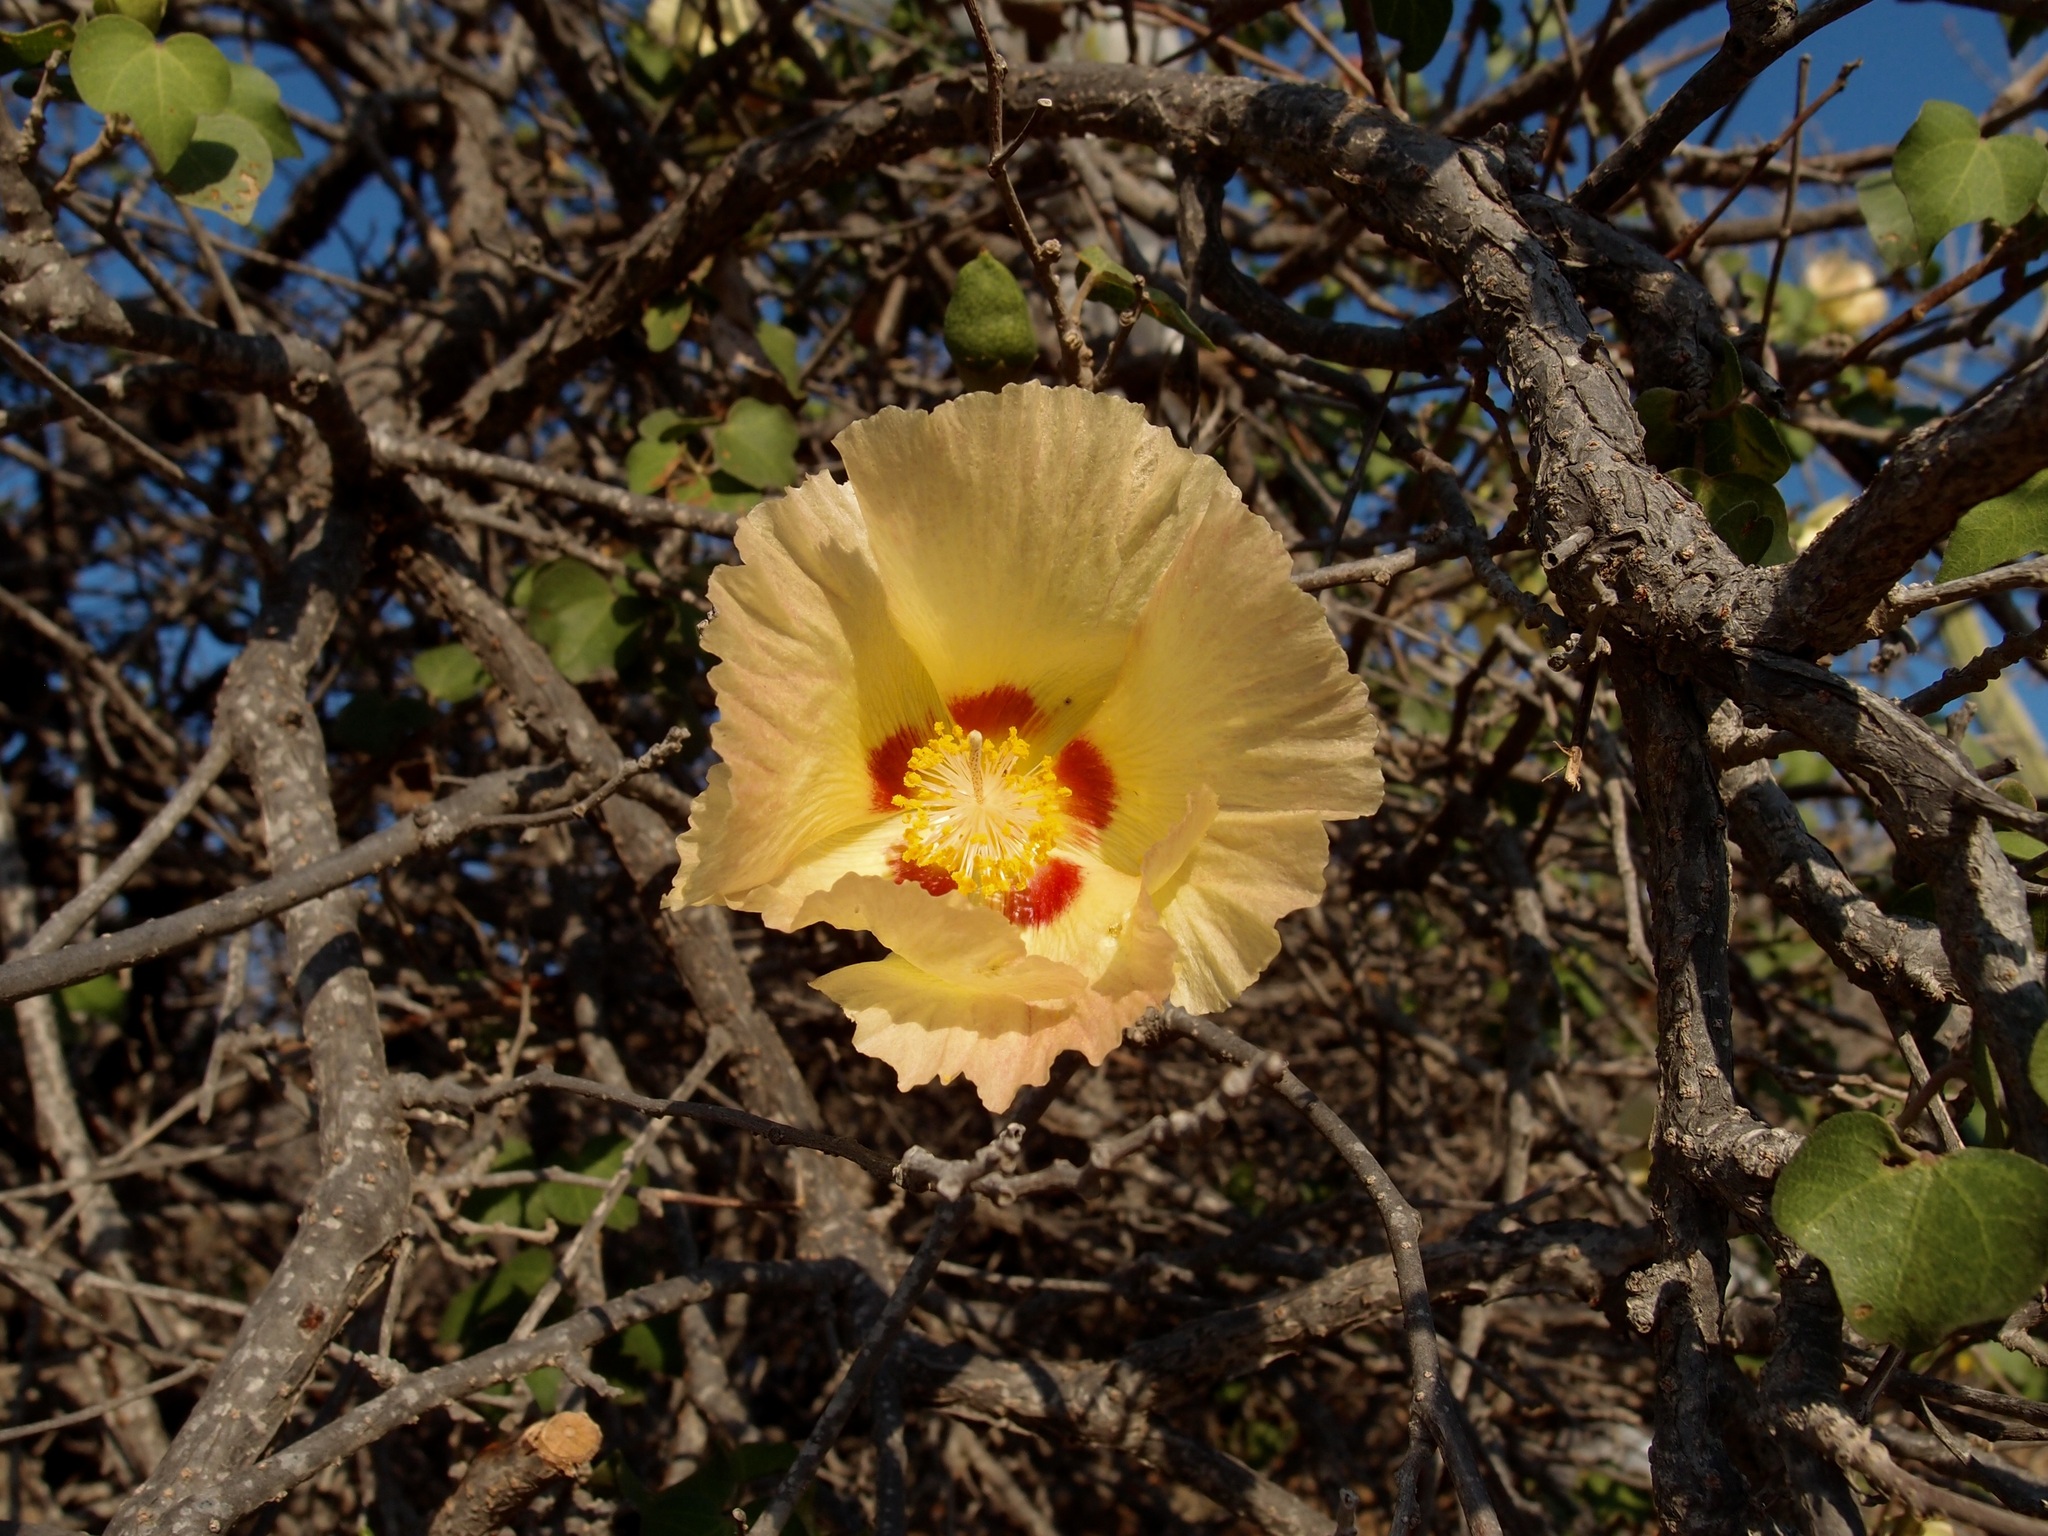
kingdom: Plantae
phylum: Tracheophyta
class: Magnoliopsida
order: Malvales
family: Malvaceae
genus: Gossypium
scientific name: Gossypium turneri
